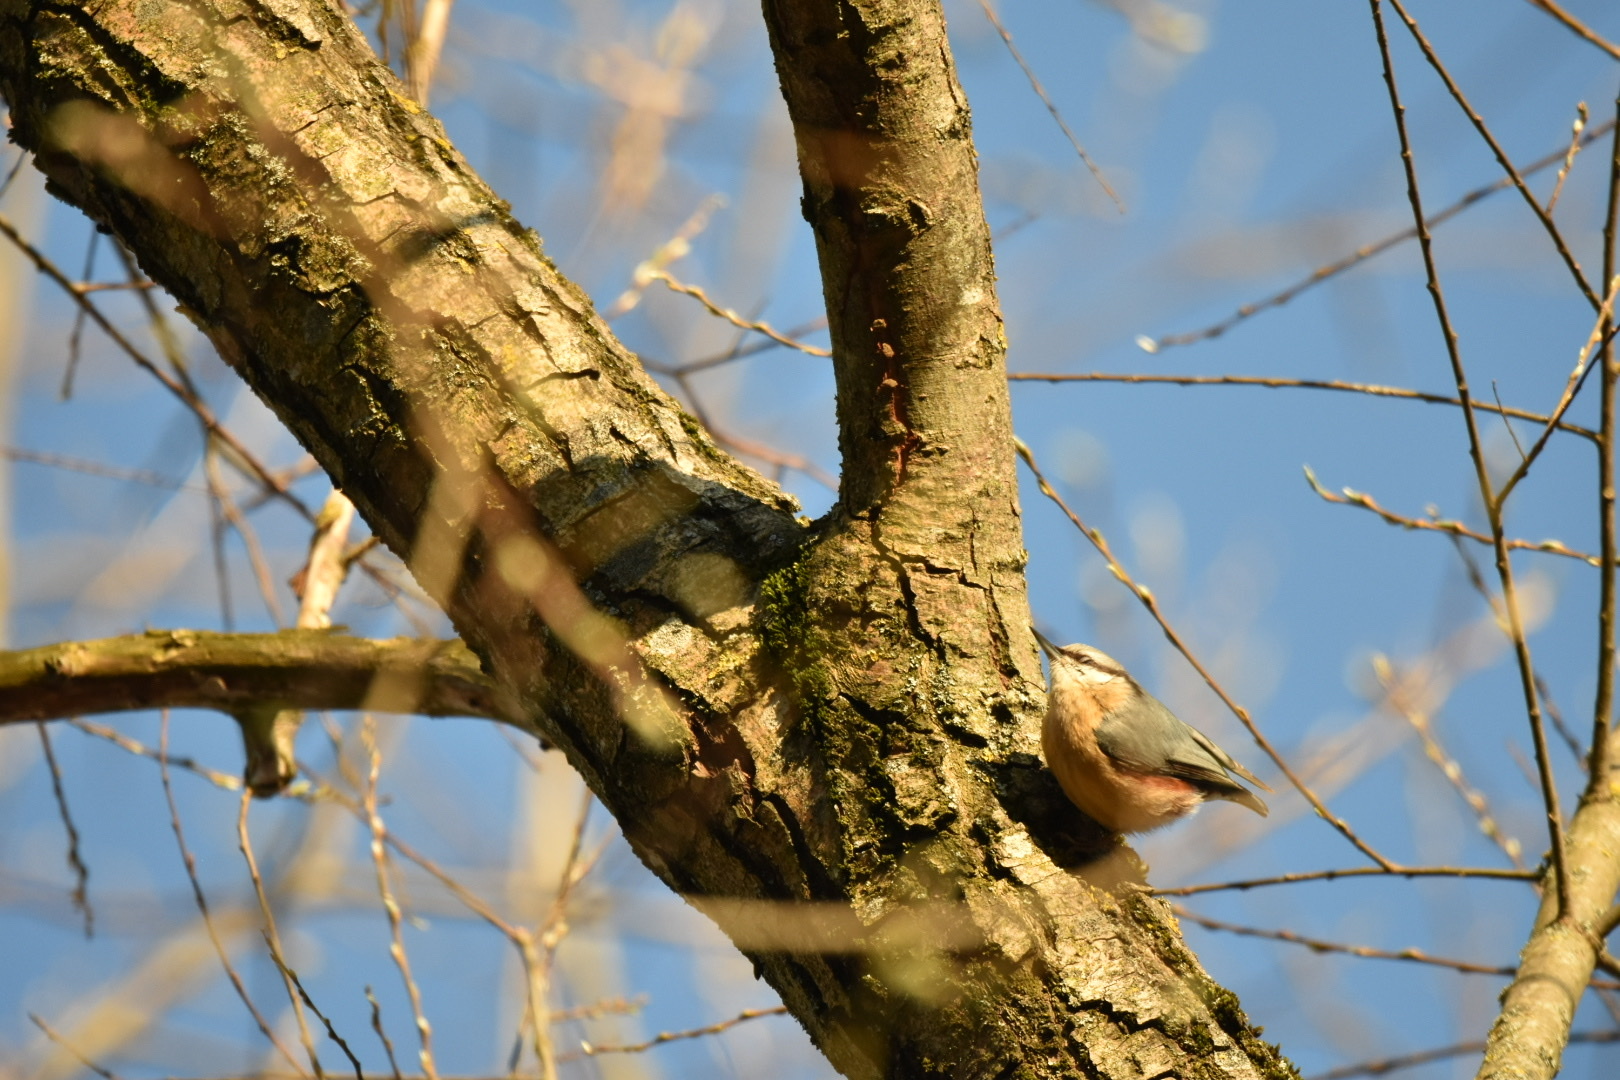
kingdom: Animalia
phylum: Chordata
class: Aves
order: Passeriformes
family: Sittidae
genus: Sitta
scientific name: Sitta europaea
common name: Eurasian nuthatch
